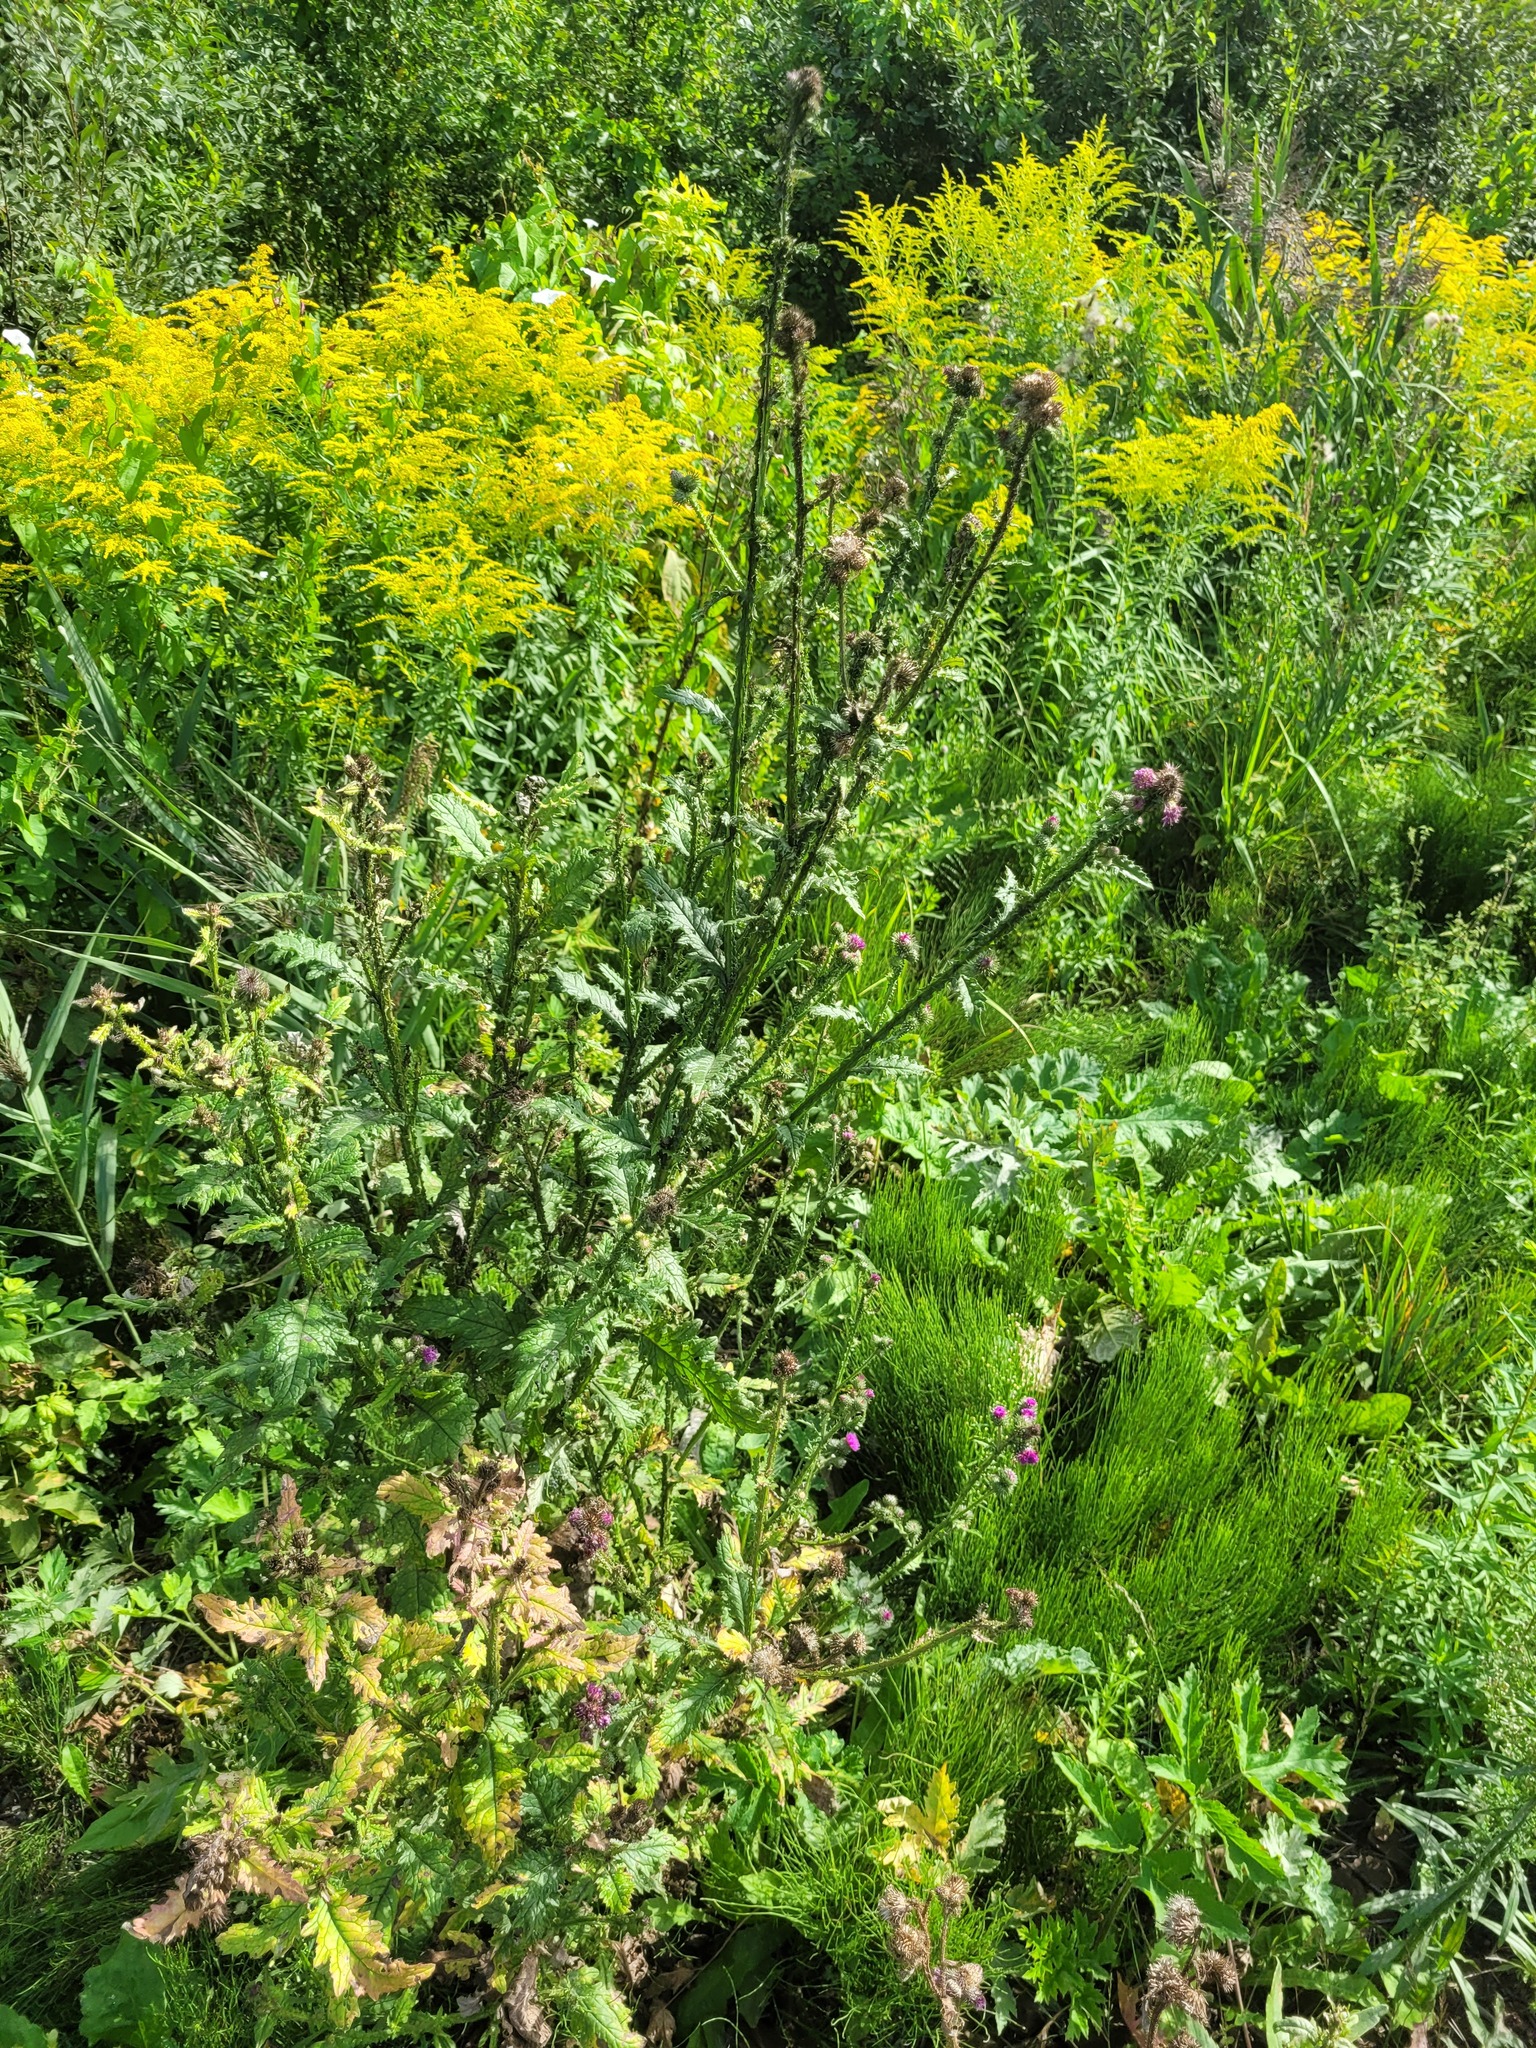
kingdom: Plantae
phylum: Tracheophyta
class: Magnoliopsida
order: Asterales
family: Asteraceae
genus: Carduus
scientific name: Carduus crispus
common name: Welted thistle
